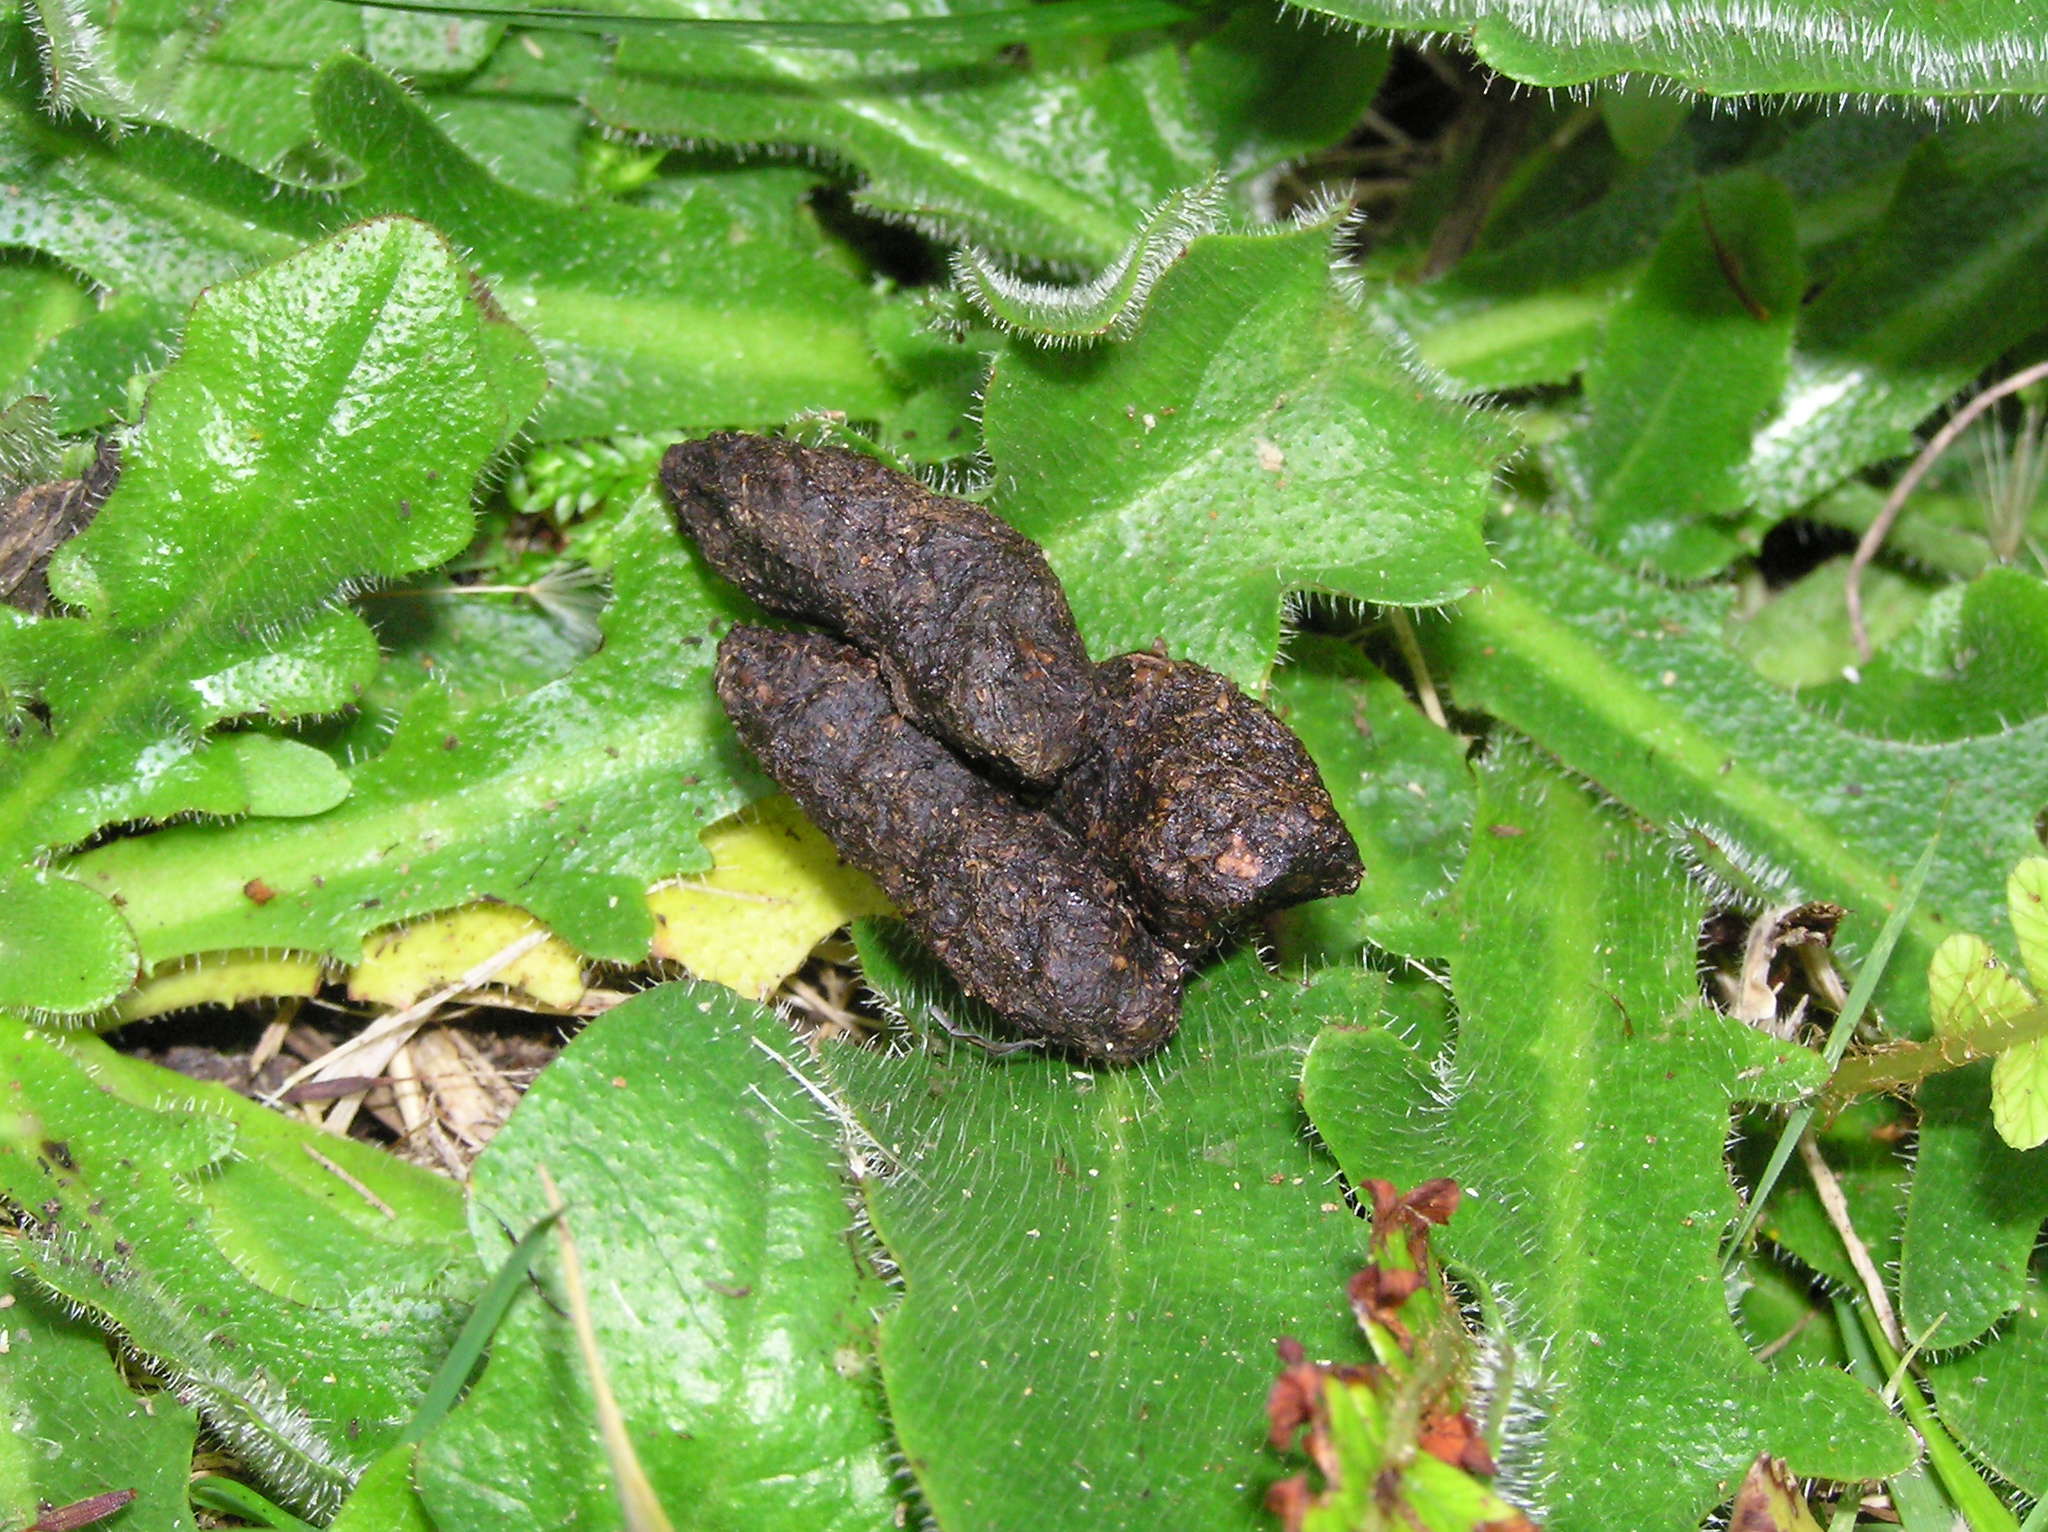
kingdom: Animalia
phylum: Chordata
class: Mammalia
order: Diprotodontia
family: Phalangeridae
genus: Trichosurus
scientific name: Trichosurus vulpecula
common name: Common brushtail
